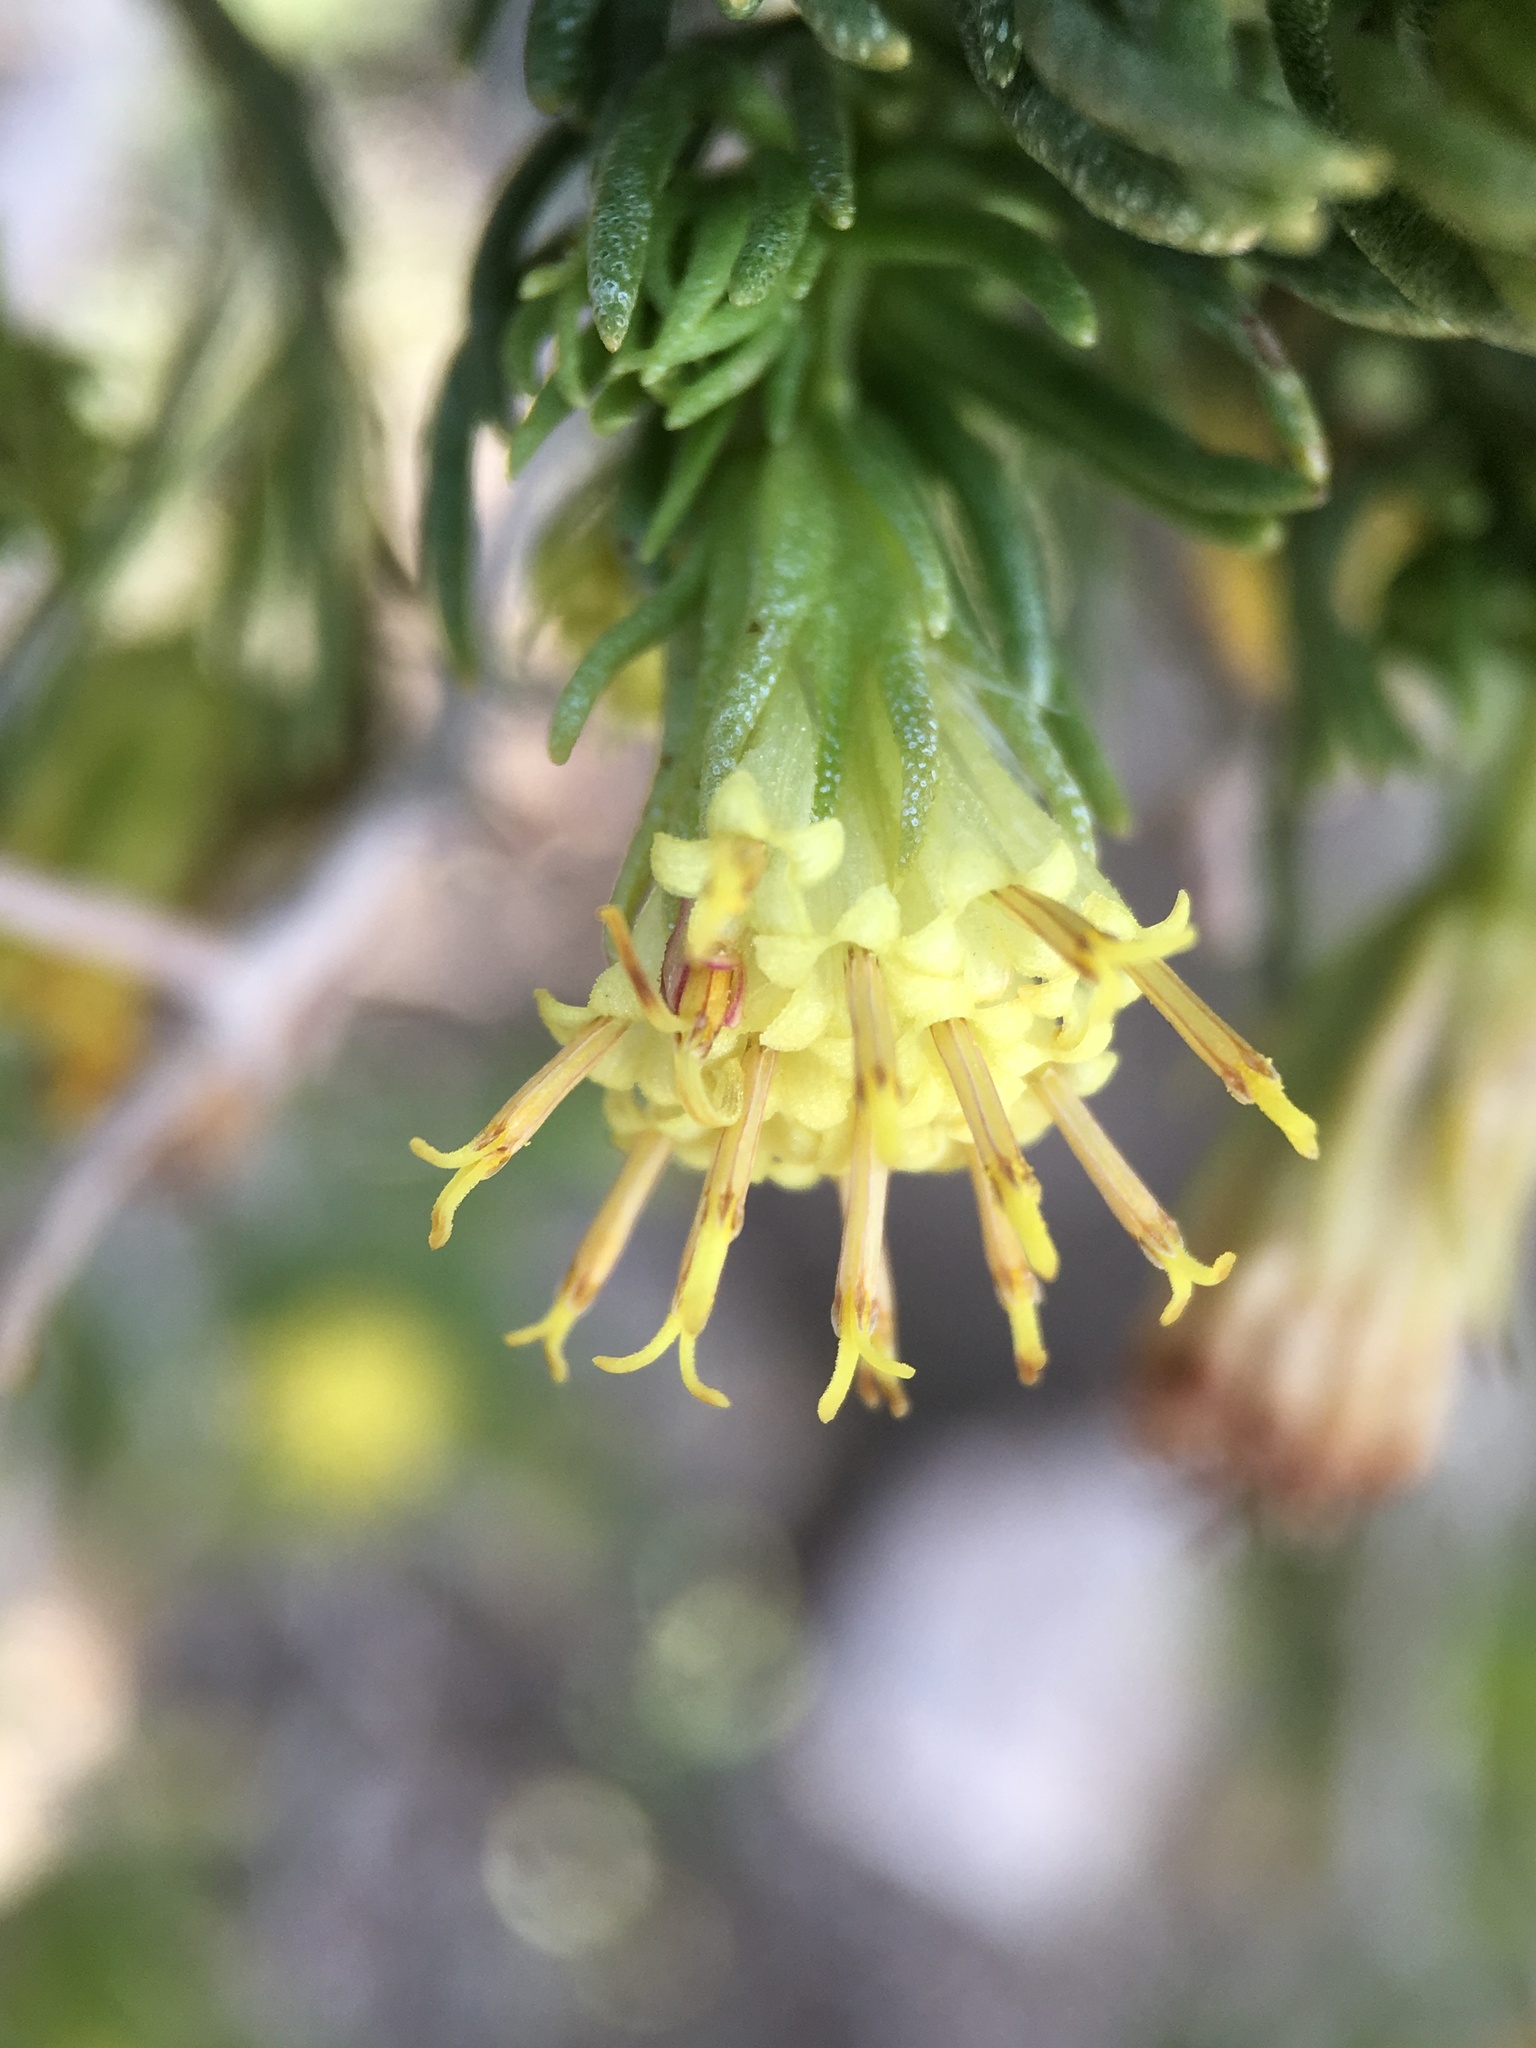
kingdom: Plantae
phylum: Tracheophyta
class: Magnoliopsida
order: Asterales
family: Asteraceae
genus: Peucephyllum
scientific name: Peucephyllum schottii
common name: Pygmy-cedar
